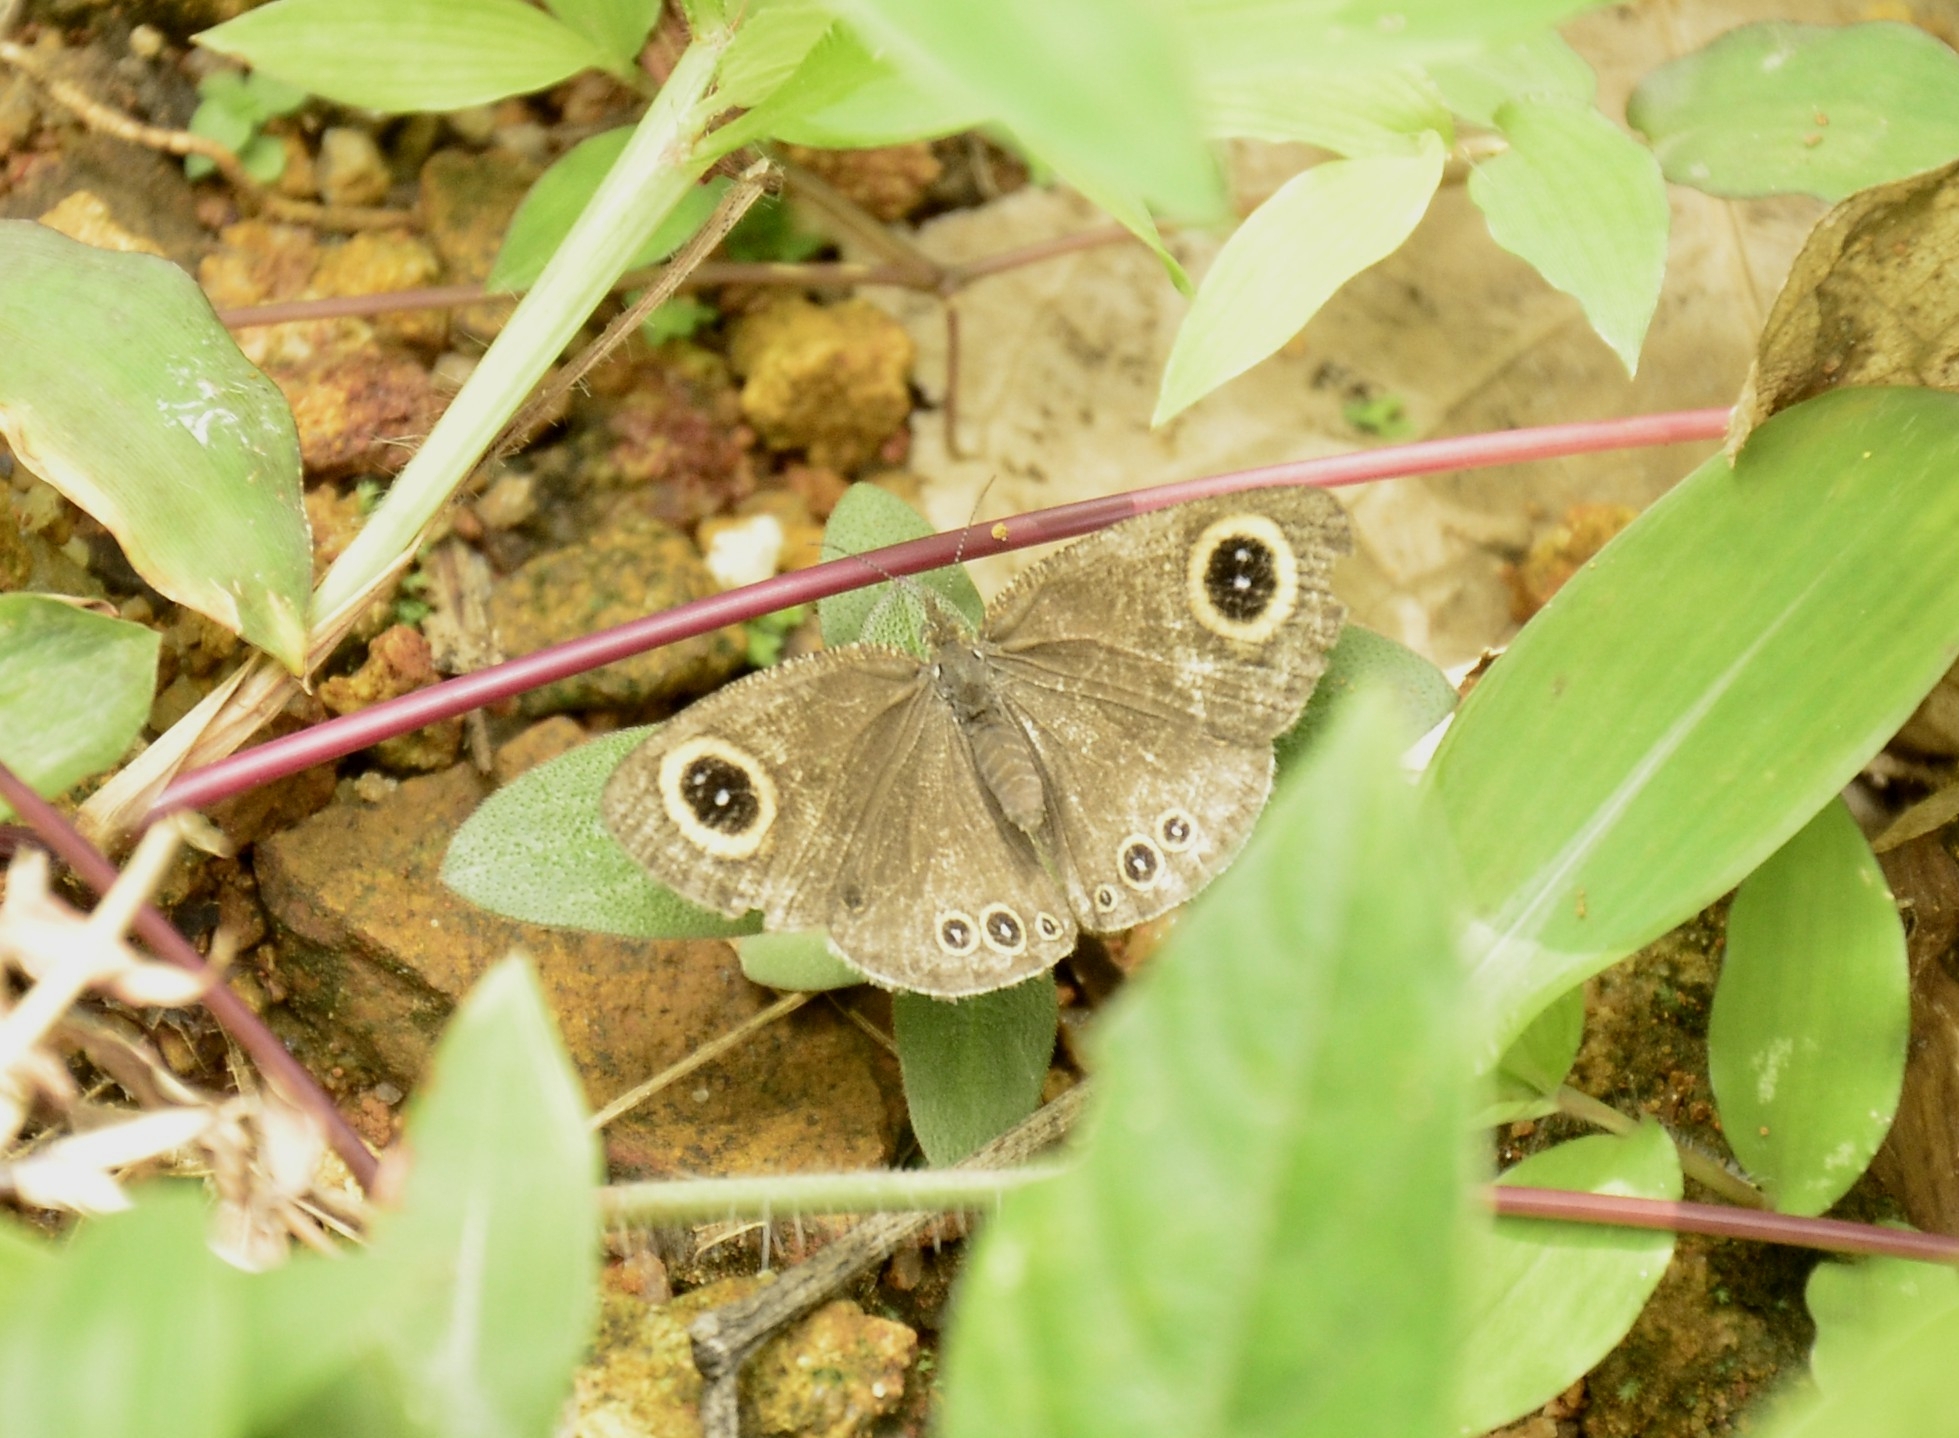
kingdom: Animalia
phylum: Arthropoda
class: Insecta
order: Lepidoptera
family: Nymphalidae
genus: Ypthima
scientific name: Ypthima huebneri
